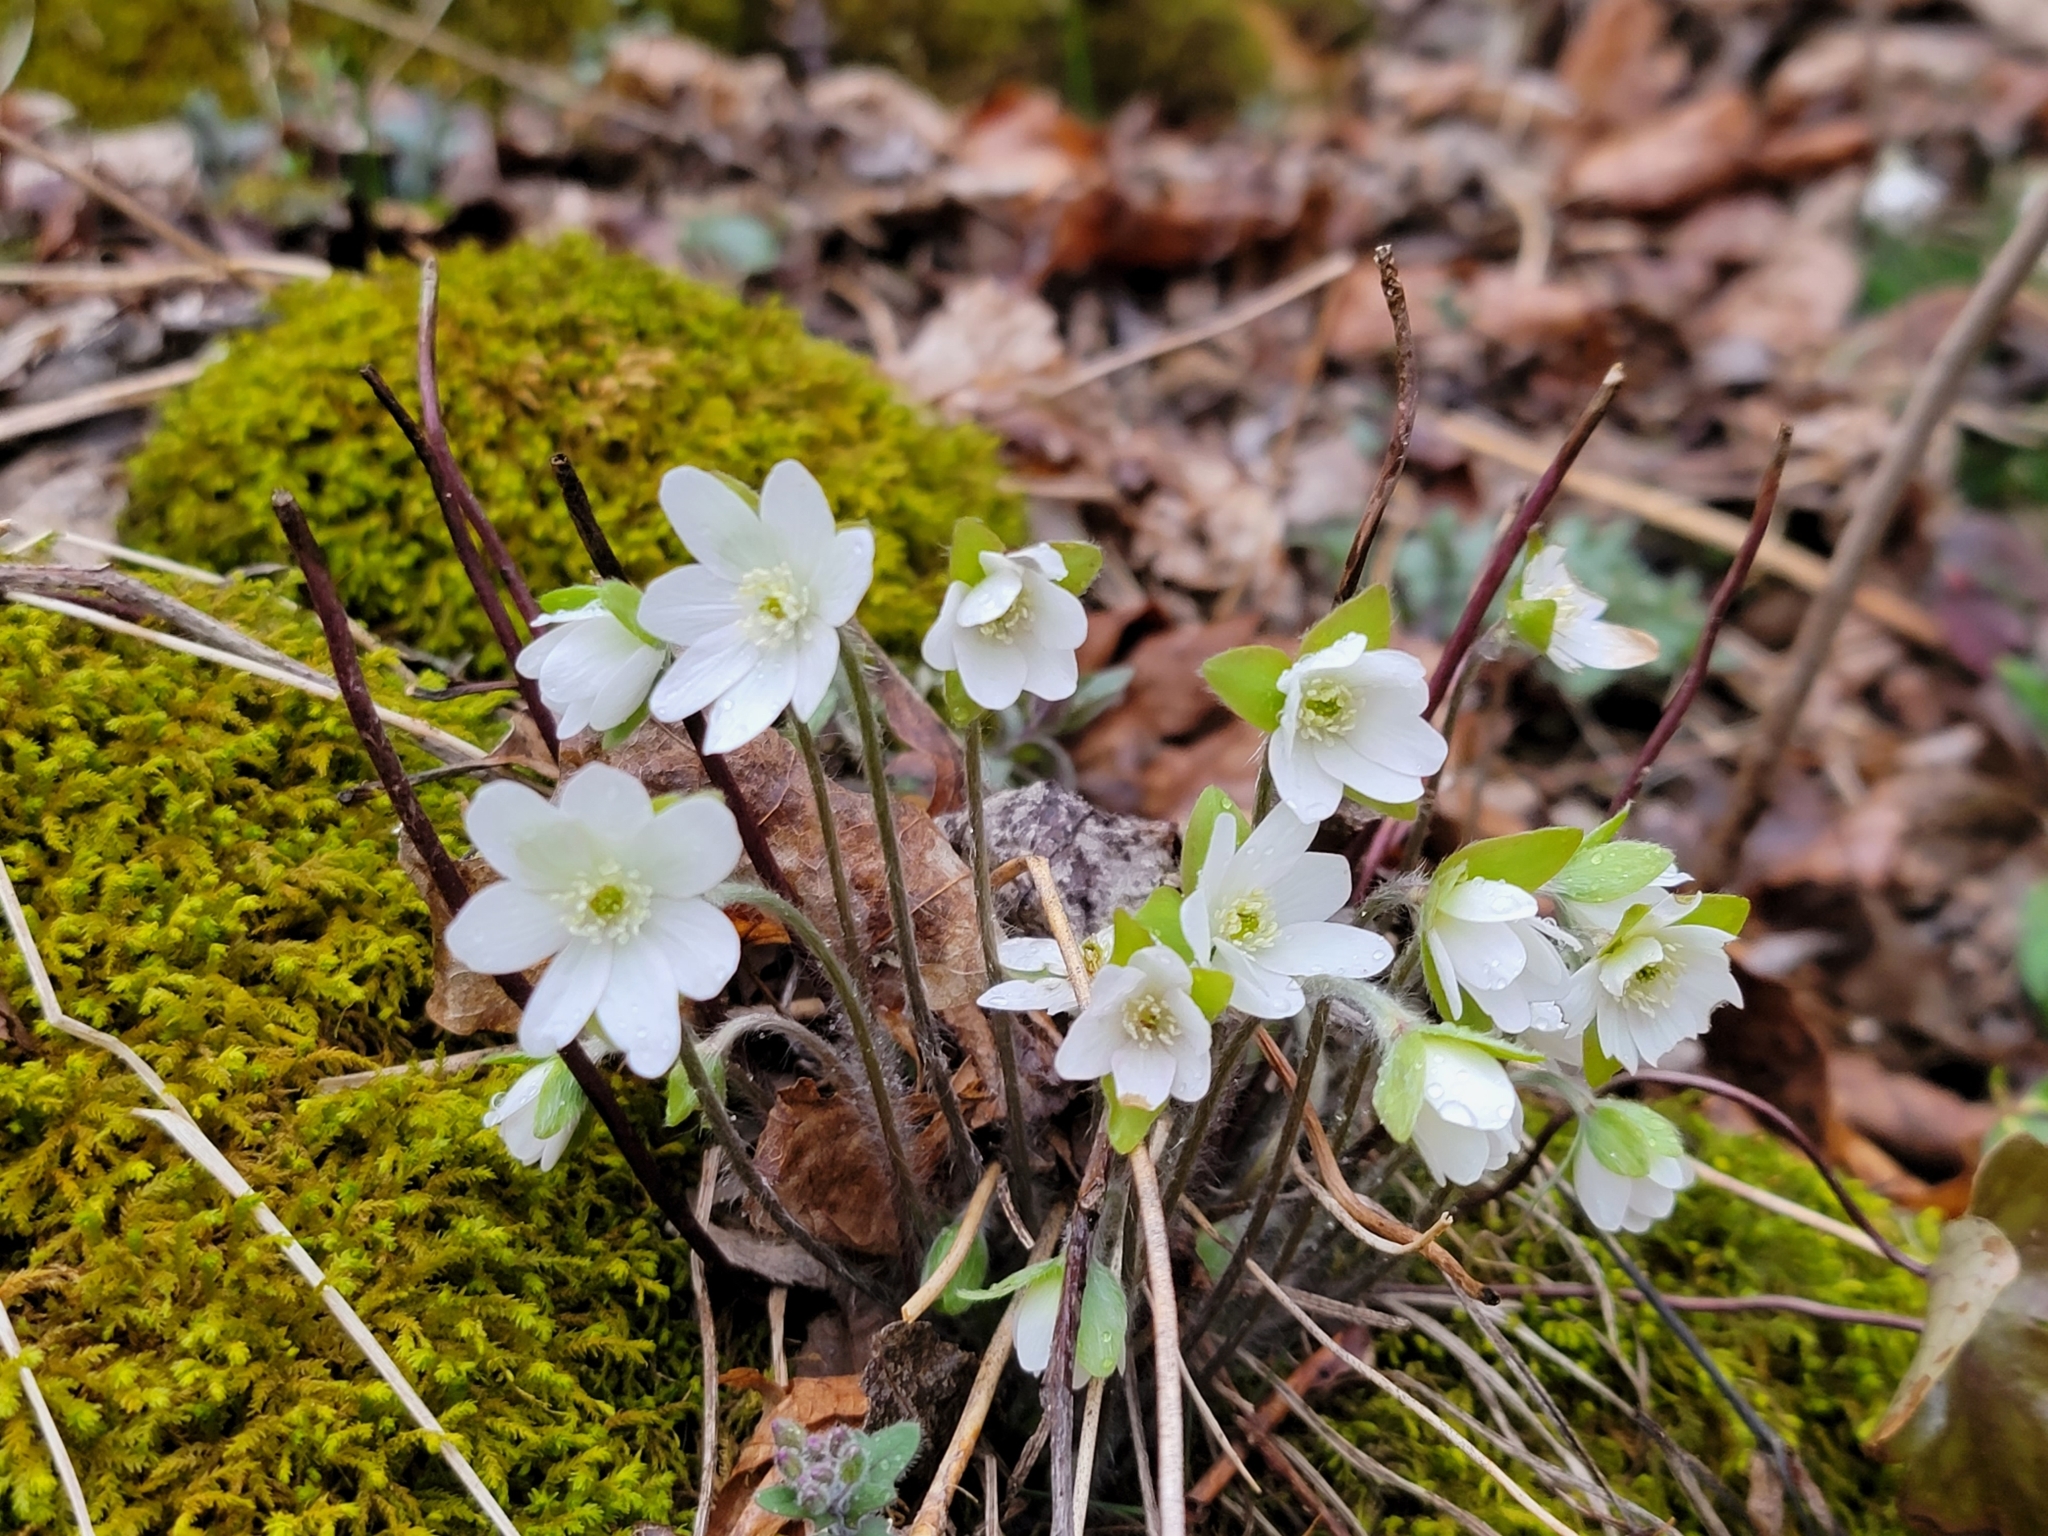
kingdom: Plantae
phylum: Tracheophyta
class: Magnoliopsida
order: Ranunculales
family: Ranunculaceae
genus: Hepatica
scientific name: Hepatica acutiloba
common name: Sharp-lobed hepatica
